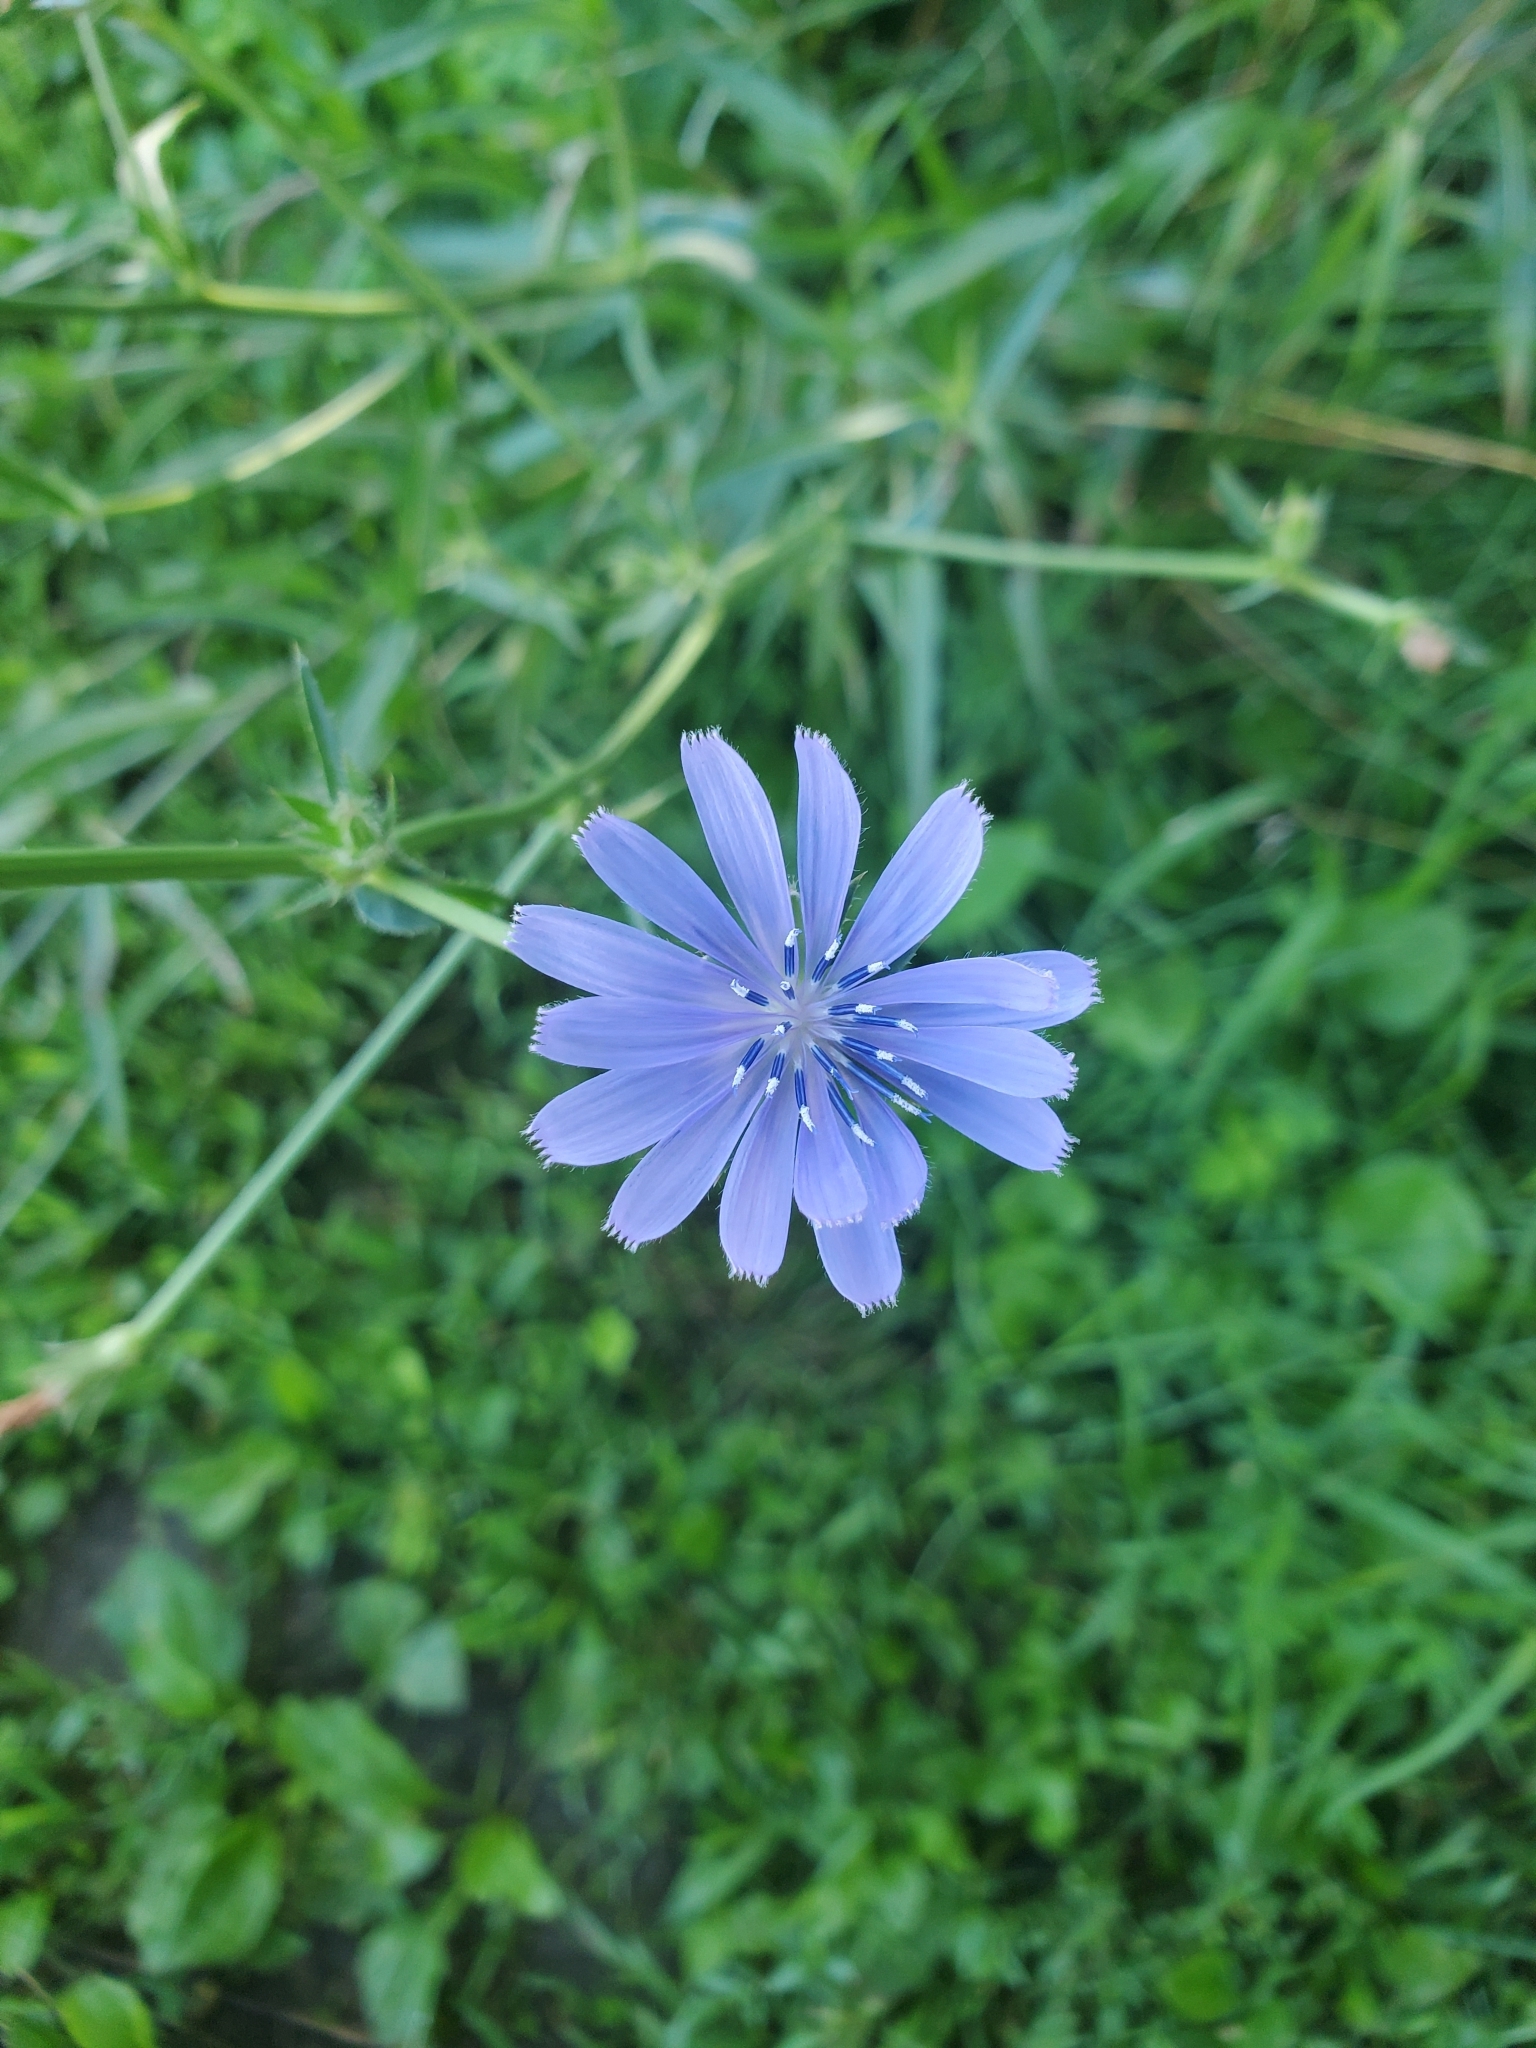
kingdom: Plantae
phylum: Tracheophyta
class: Magnoliopsida
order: Asterales
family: Asteraceae
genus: Cichorium
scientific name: Cichorium intybus
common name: Chicory
